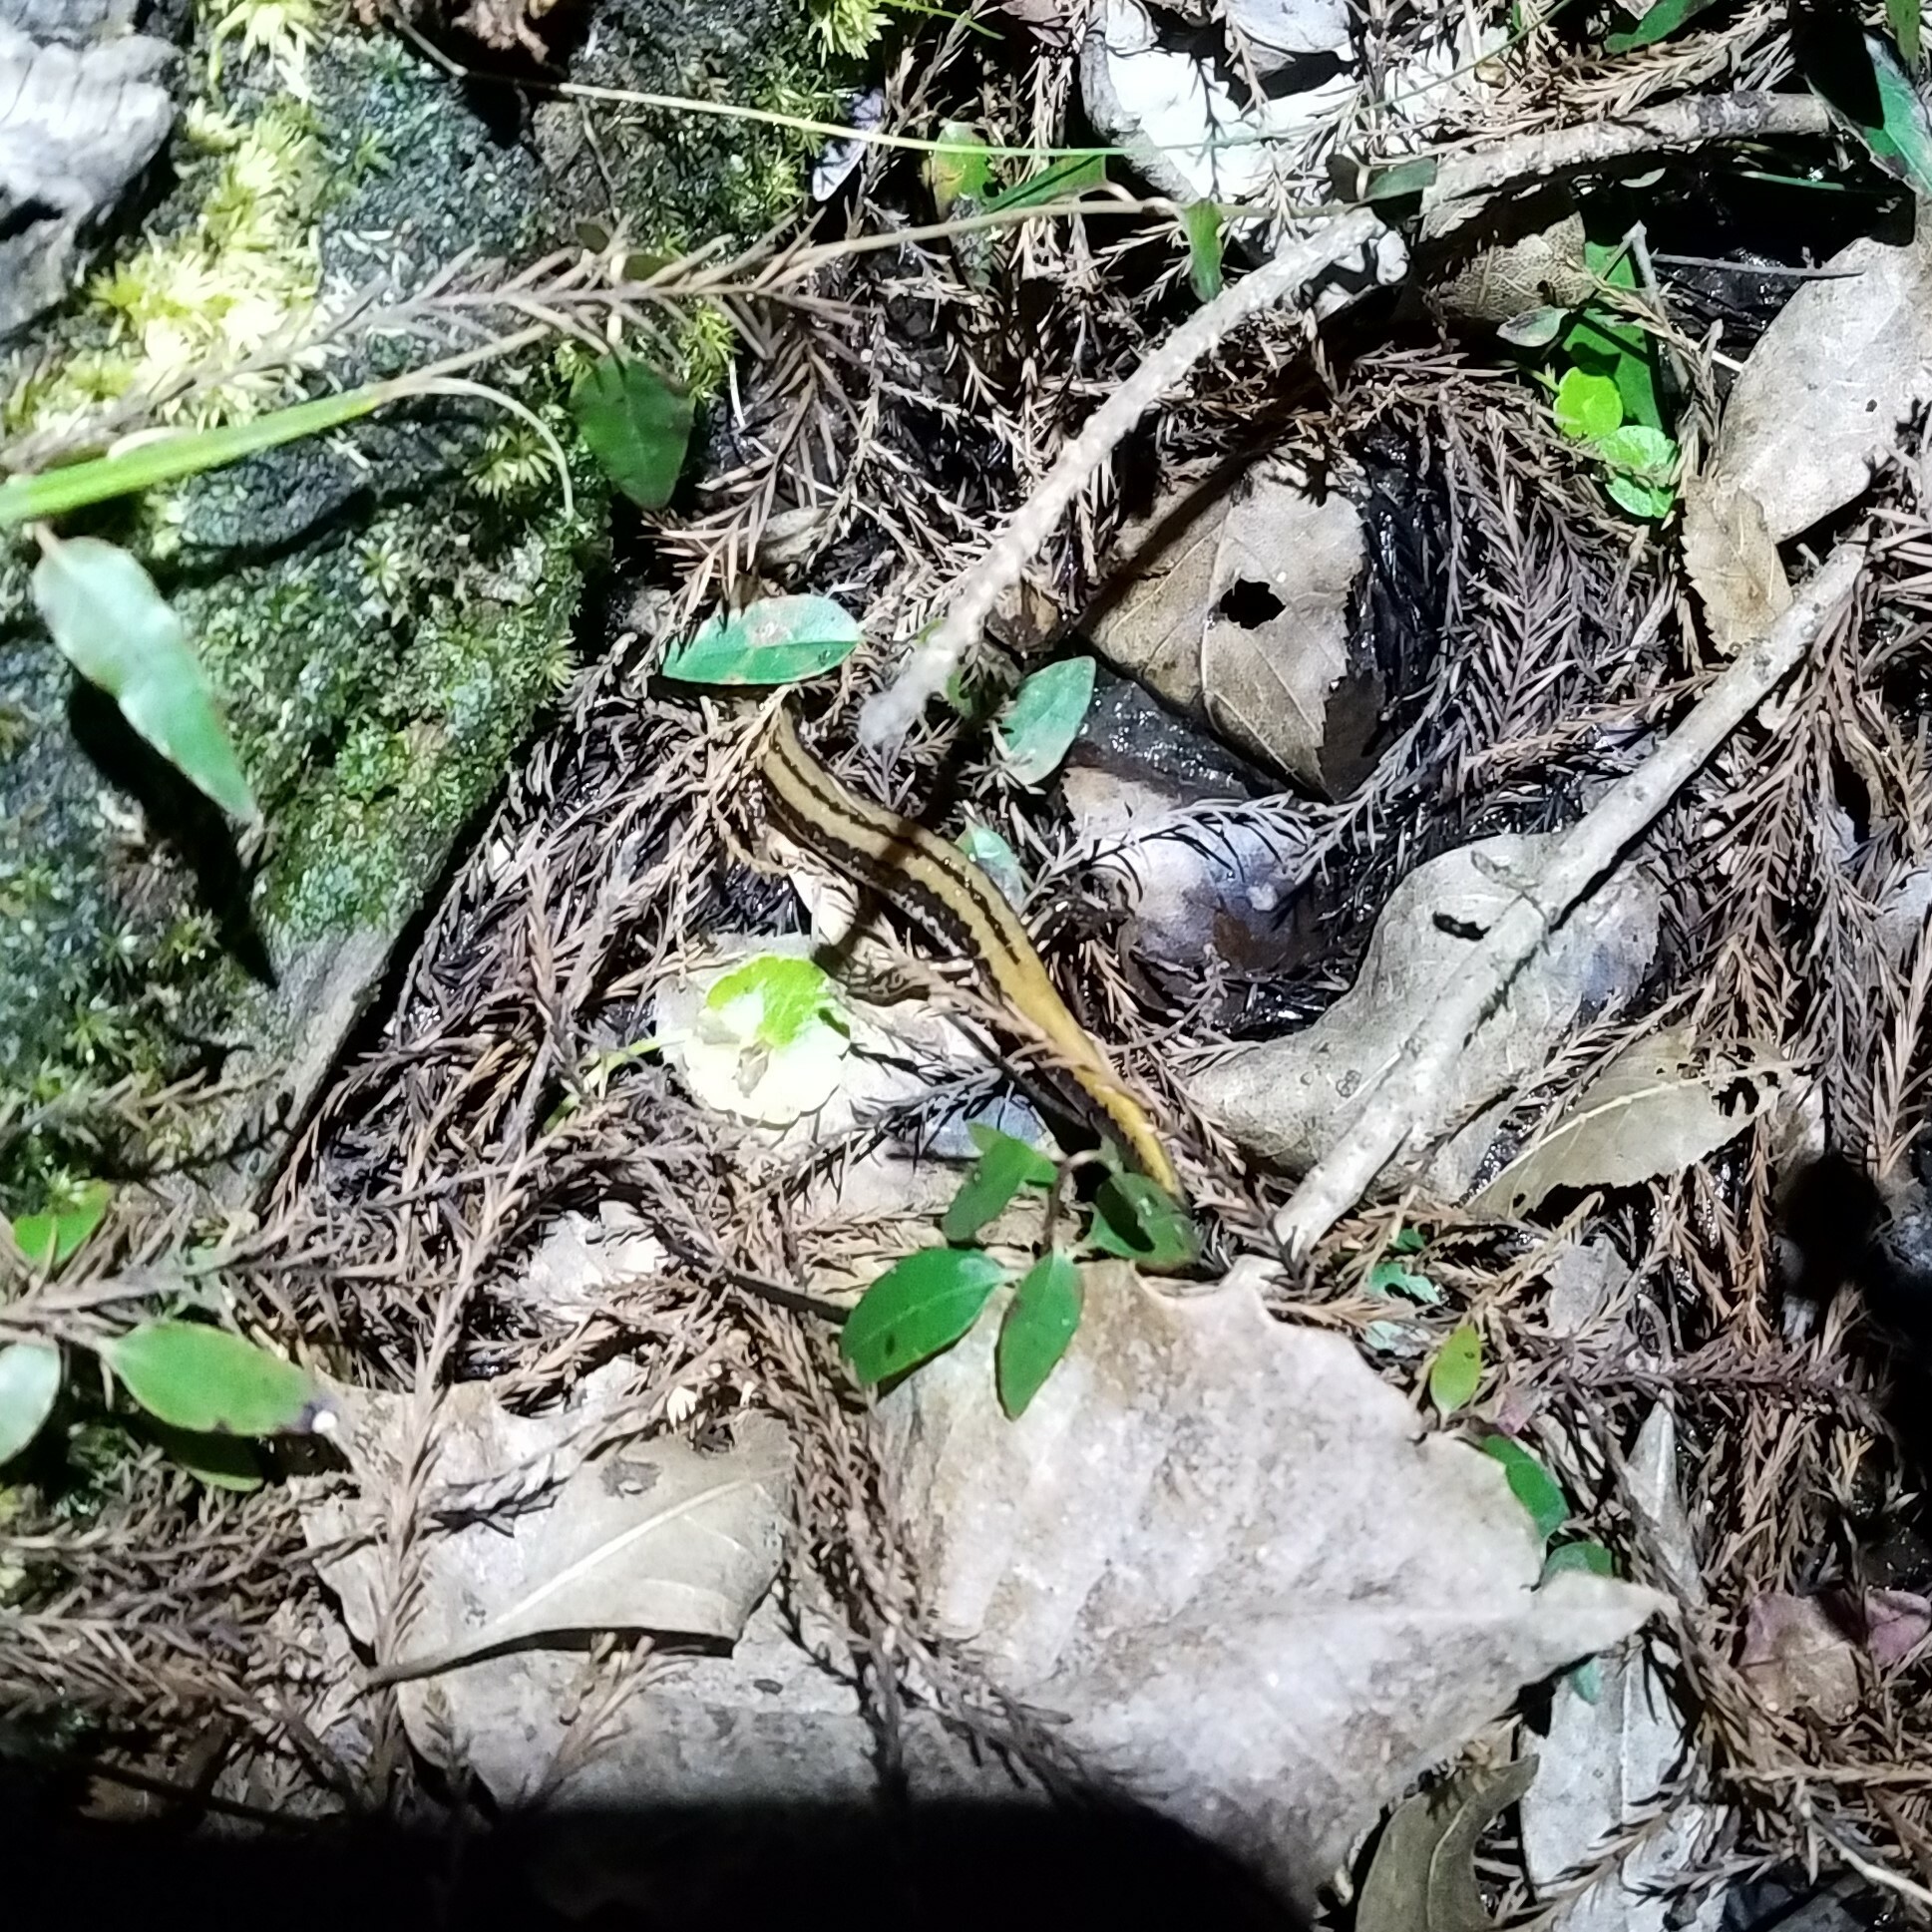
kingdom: Animalia
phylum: Chordata
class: Amphibia
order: Caudata
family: Plethodontidae
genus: Eurycea
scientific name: Eurycea guttolineata
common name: Three-lined salamander
